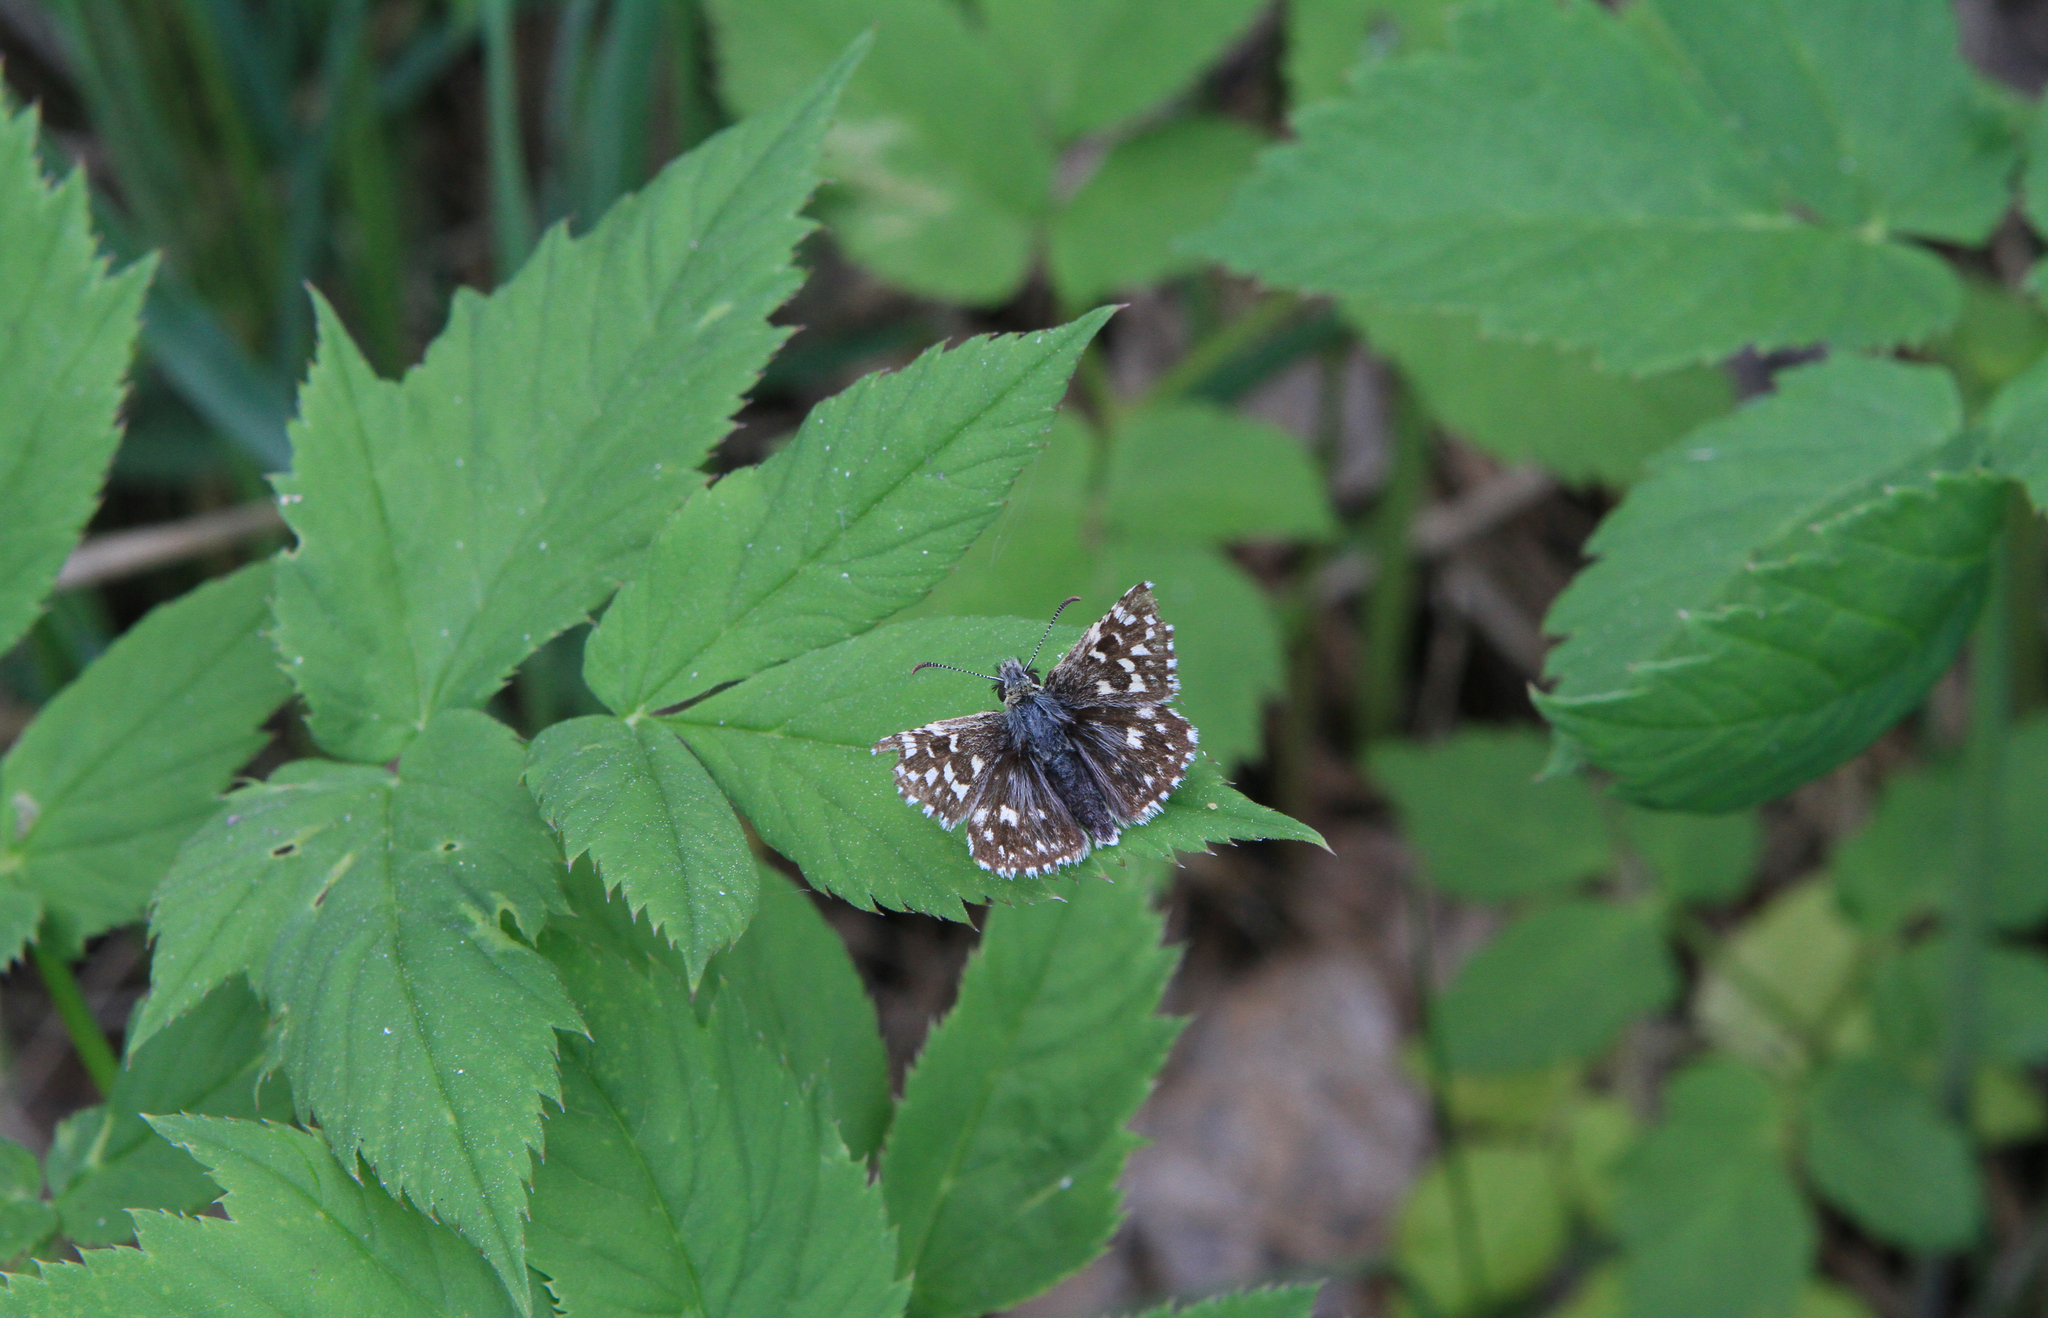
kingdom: Plantae
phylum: Tracheophyta
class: Magnoliopsida
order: Apiales
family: Apiaceae
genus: Aegopodium
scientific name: Aegopodium podagraria
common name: Ground-elder
